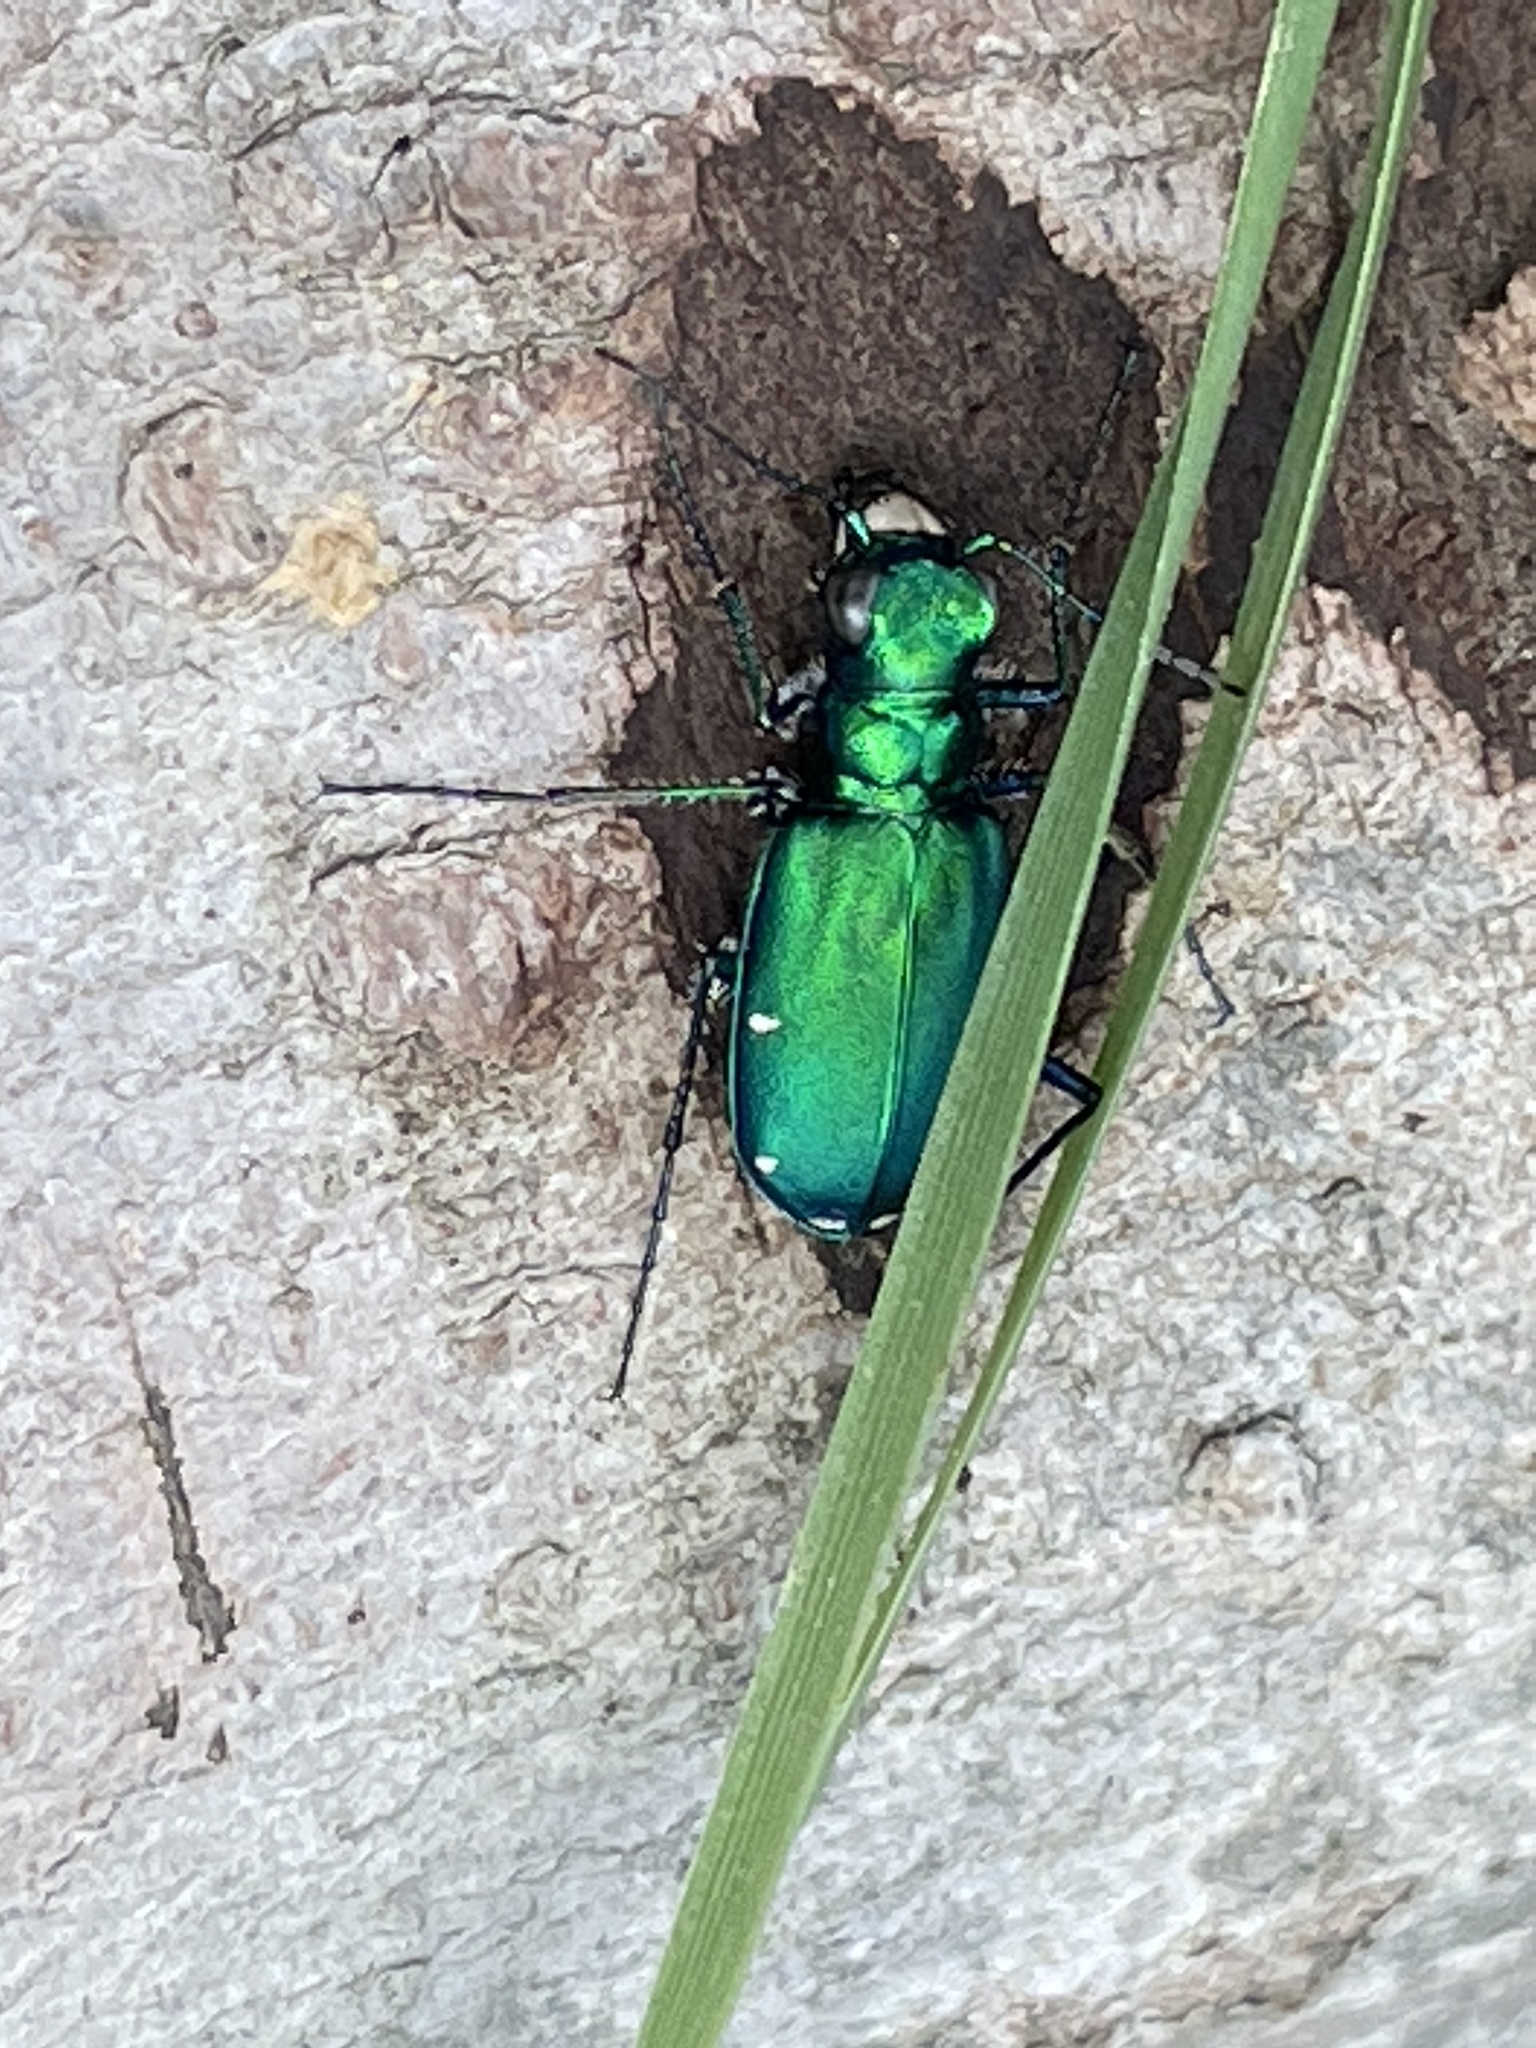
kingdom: Animalia
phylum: Arthropoda
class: Insecta
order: Coleoptera
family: Carabidae
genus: Cicindela
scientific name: Cicindela sexguttata
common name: Six-spotted tiger beetle
